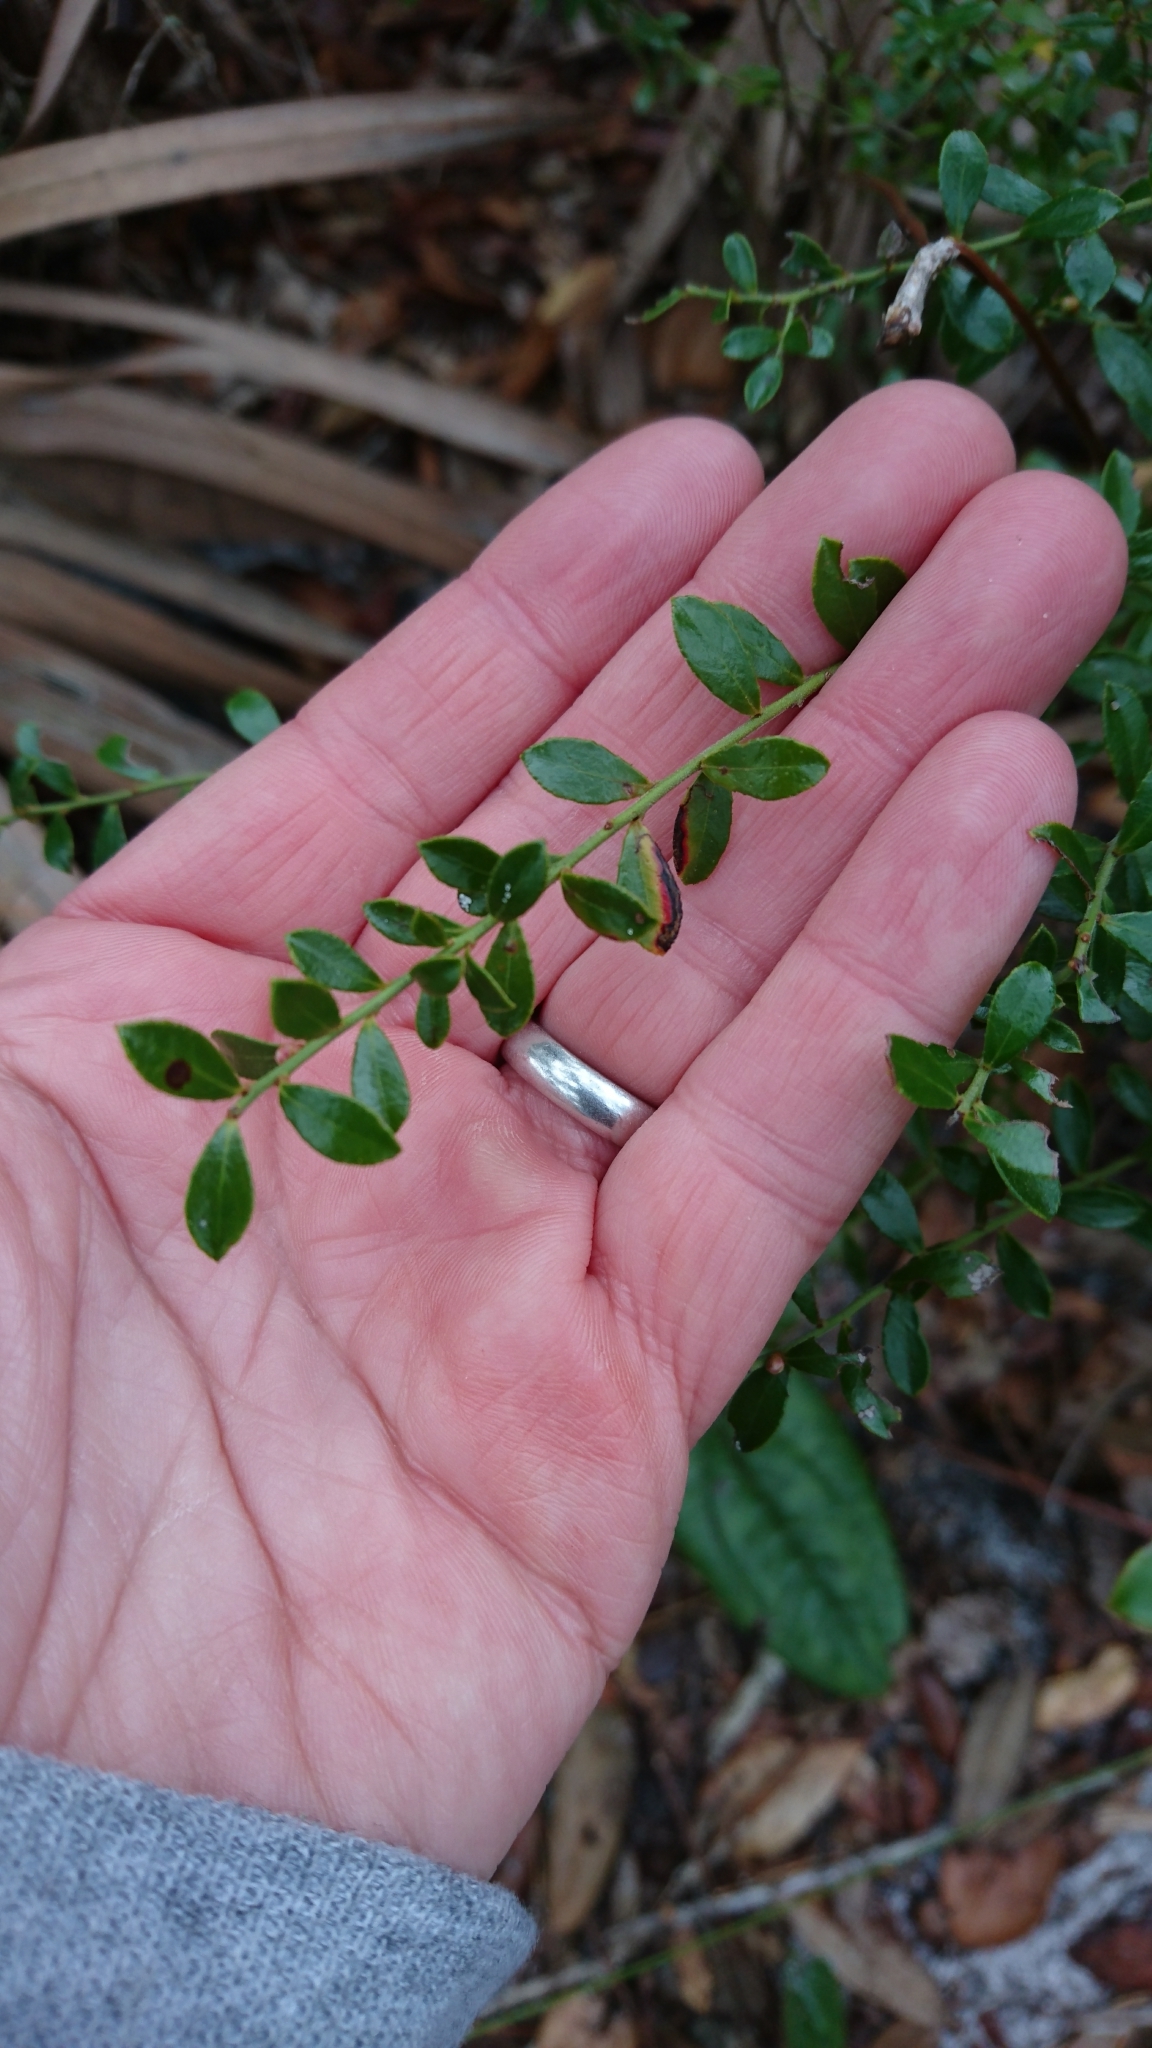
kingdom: Plantae
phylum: Tracheophyta
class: Magnoliopsida
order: Ericales
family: Ericaceae
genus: Vaccinium
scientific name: Vaccinium myrsinites
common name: Evergreen blueberry
